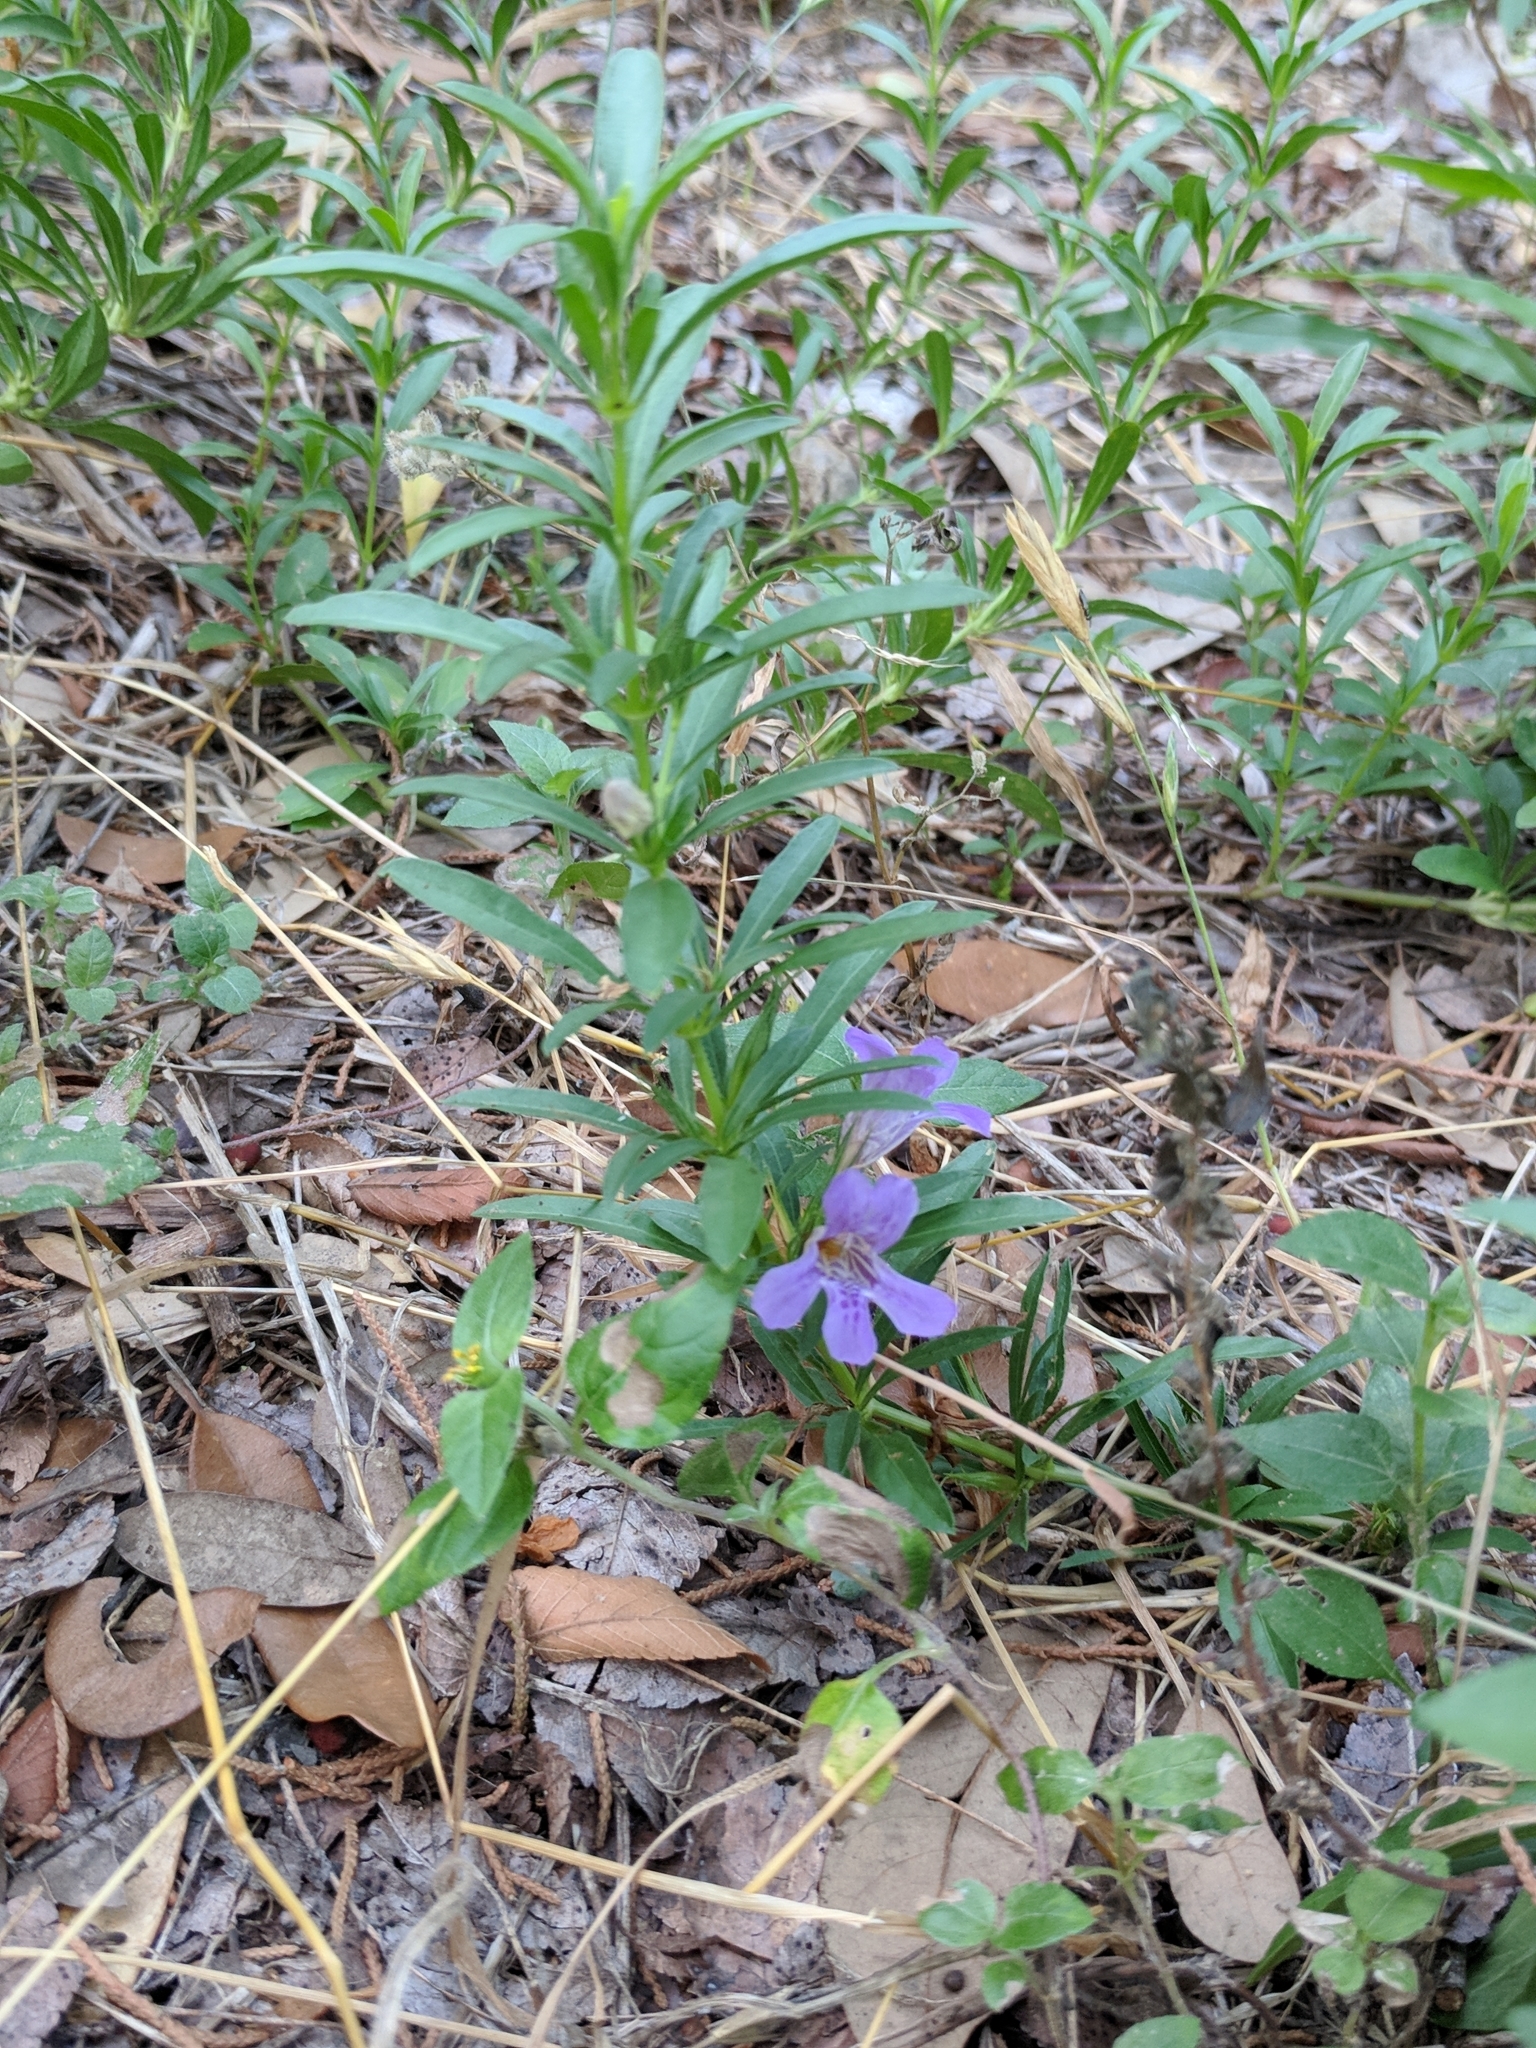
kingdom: Plantae
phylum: Tracheophyta
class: Magnoliopsida
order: Lamiales
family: Acanthaceae
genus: Dyschoriste
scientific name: Dyschoriste linearis
